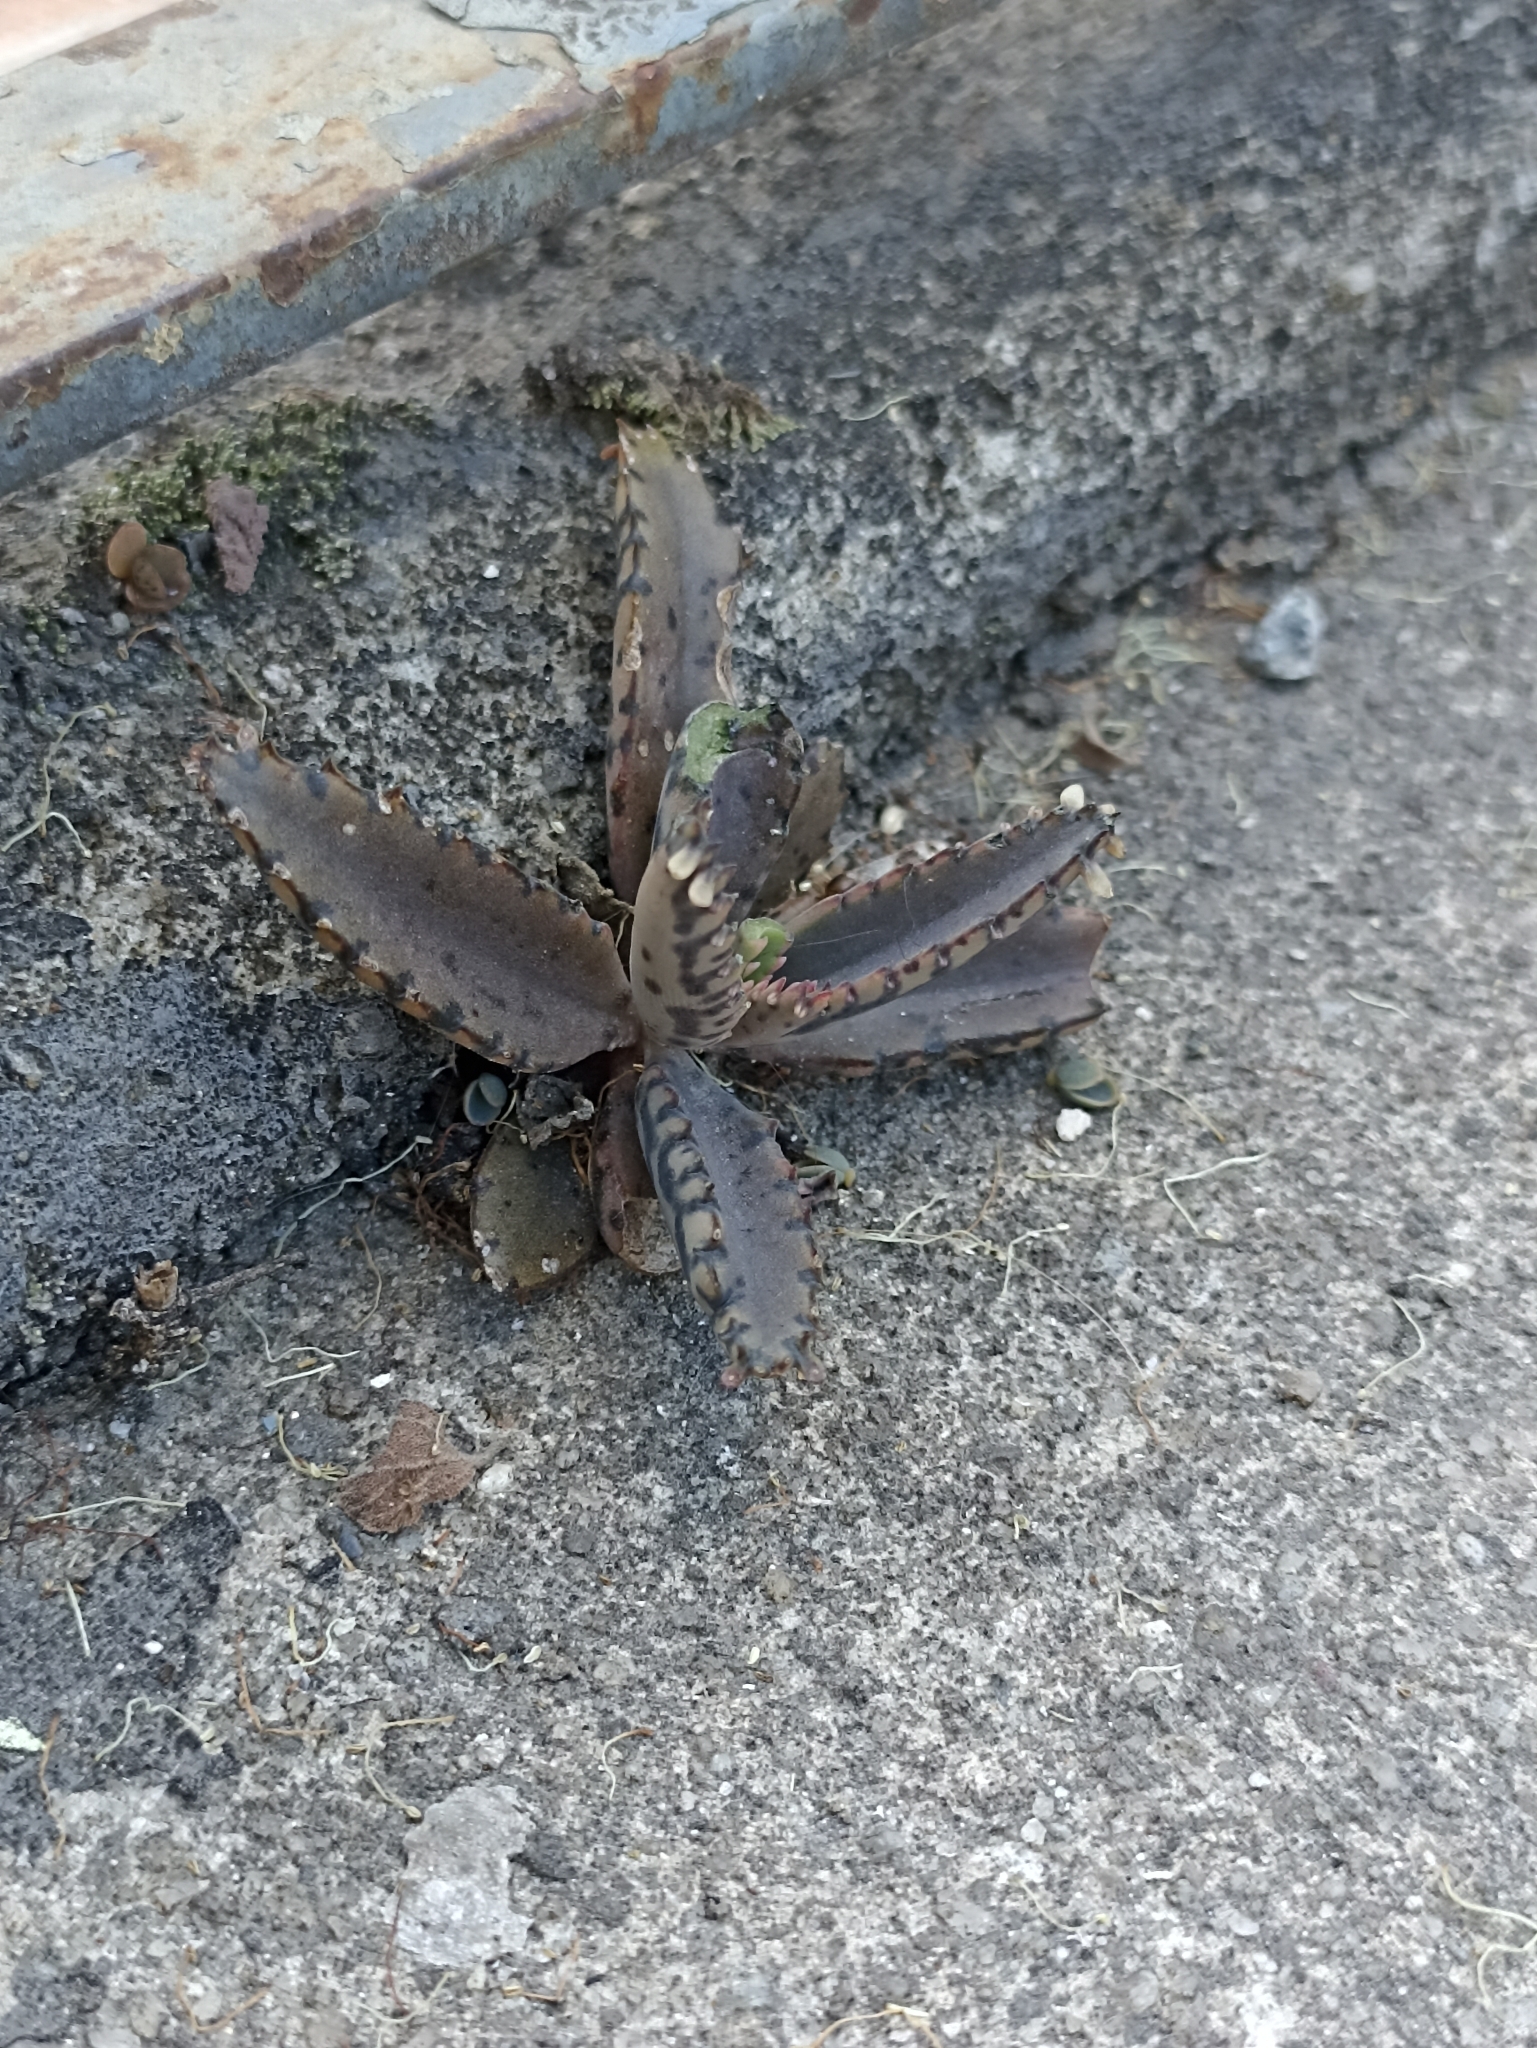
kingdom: Plantae
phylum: Tracheophyta
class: Magnoliopsida
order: Saxifragales
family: Crassulaceae
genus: Kalanchoe
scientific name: Kalanchoe houghtonii
